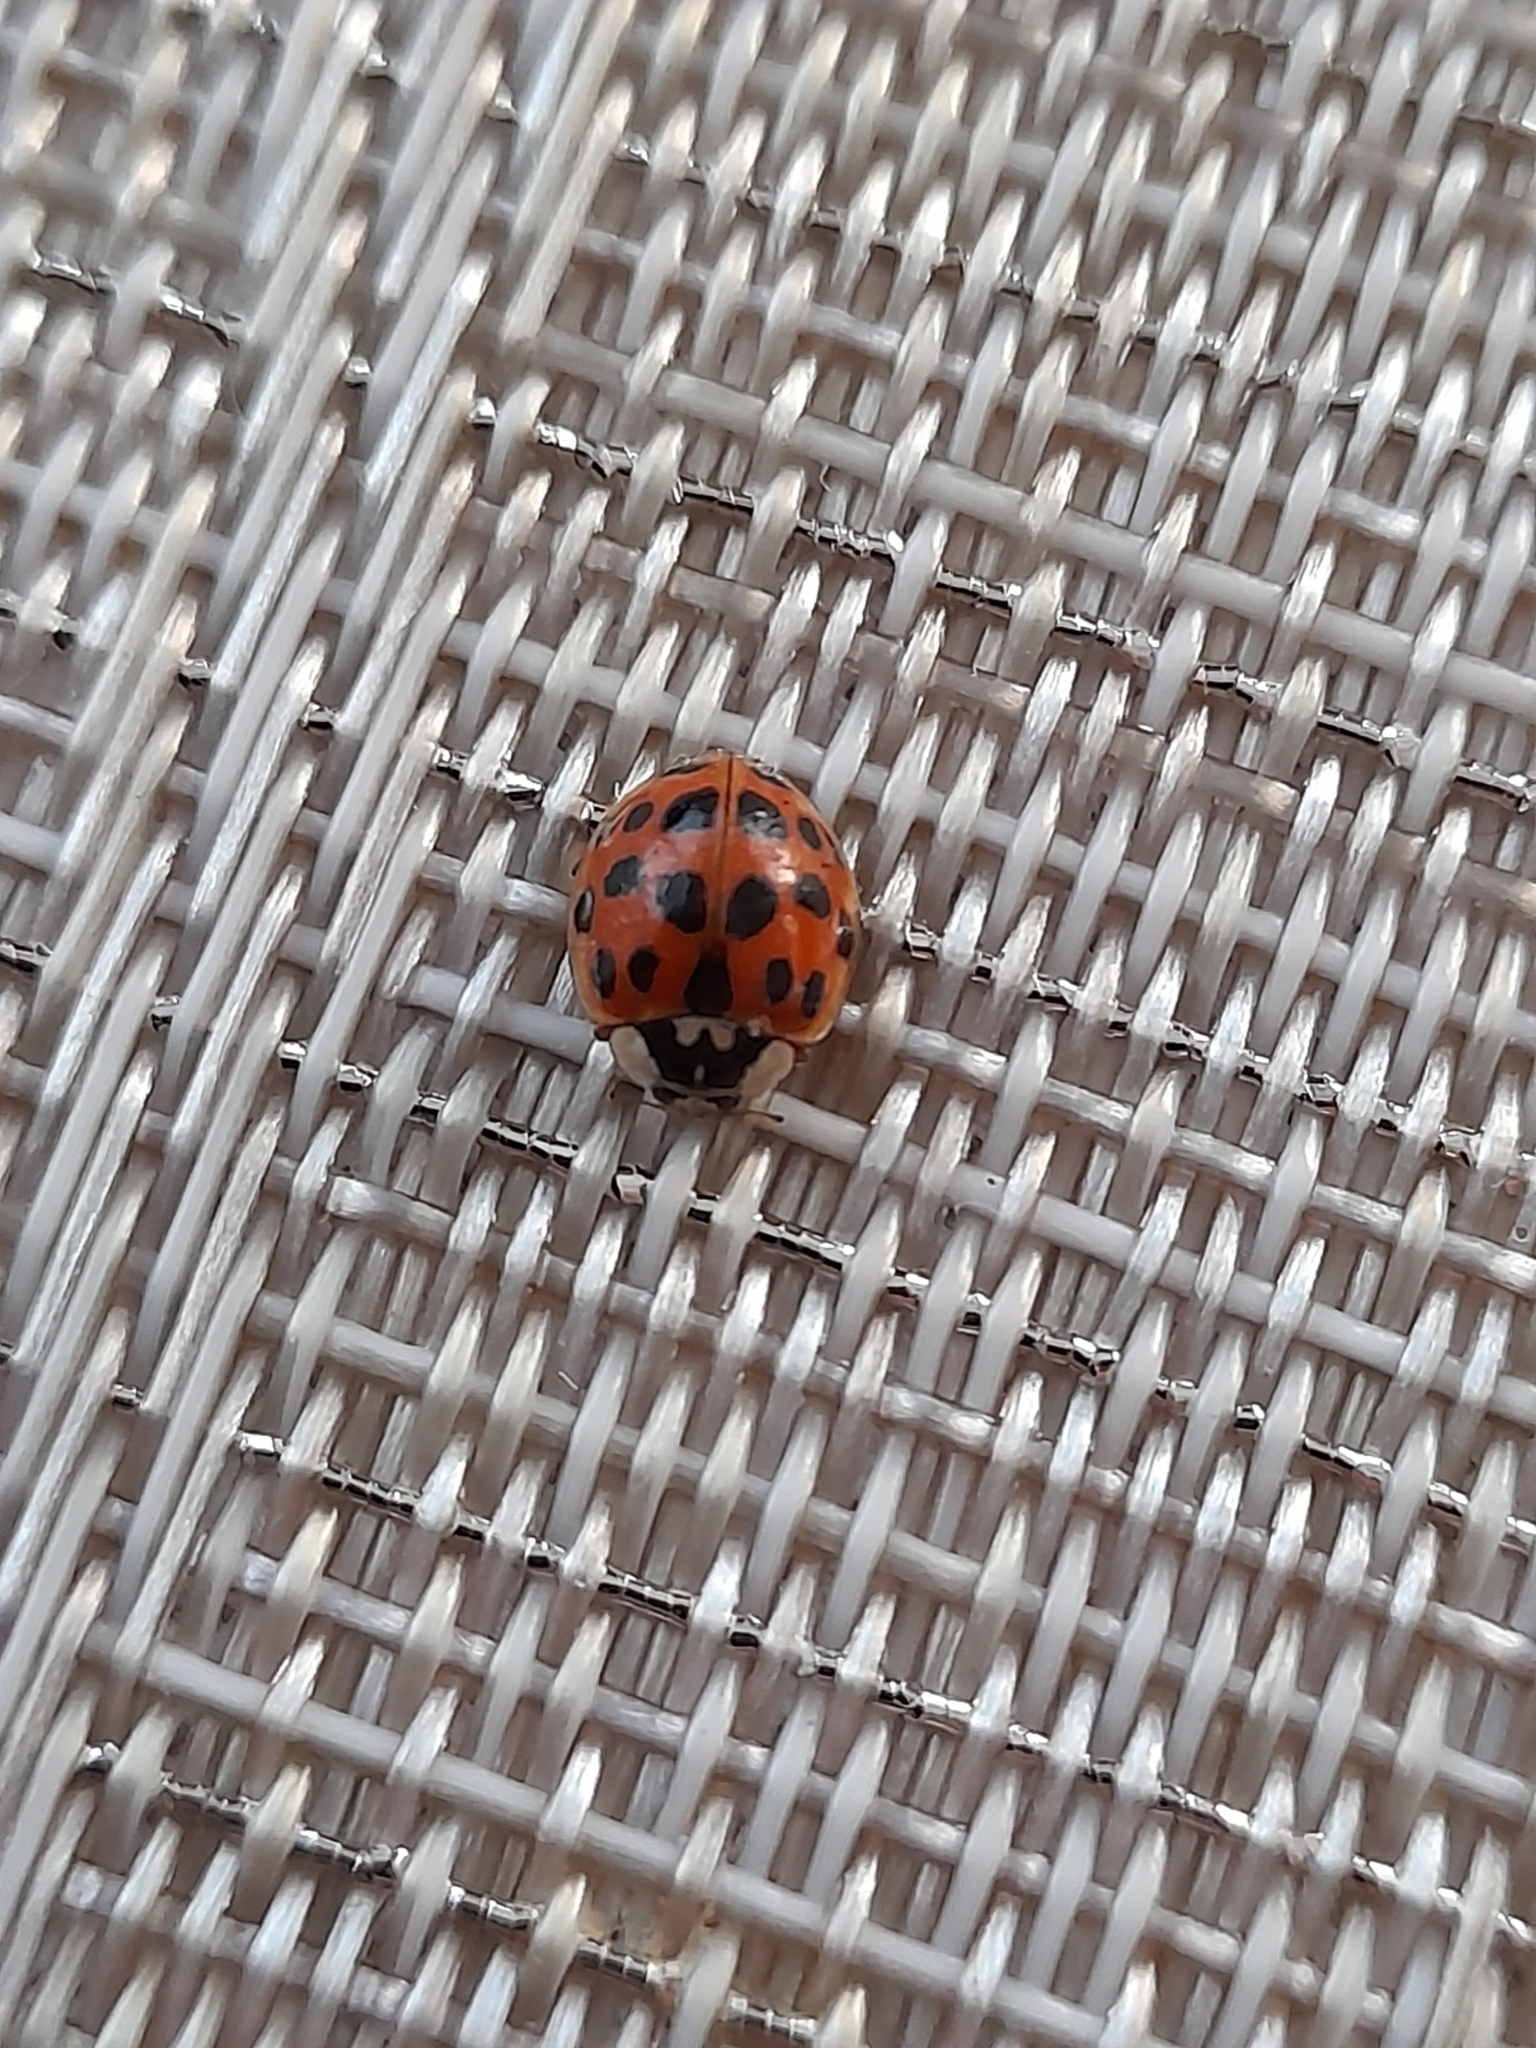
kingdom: Animalia
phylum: Arthropoda
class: Insecta
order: Coleoptera
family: Coccinellidae
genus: Harmonia
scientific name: Harmonia axyridis
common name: Harlequin ladybird
